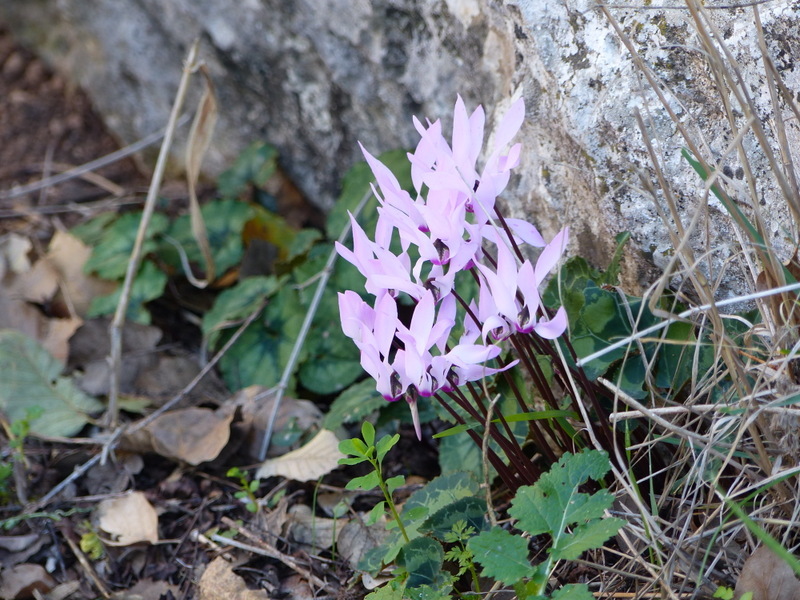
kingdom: Plantae
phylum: Tracheophyta
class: Magnoliopsida
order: Ericales
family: Primulaceae
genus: Cyclamen
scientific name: Cyclamen persicum
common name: Florist's cyclamen
